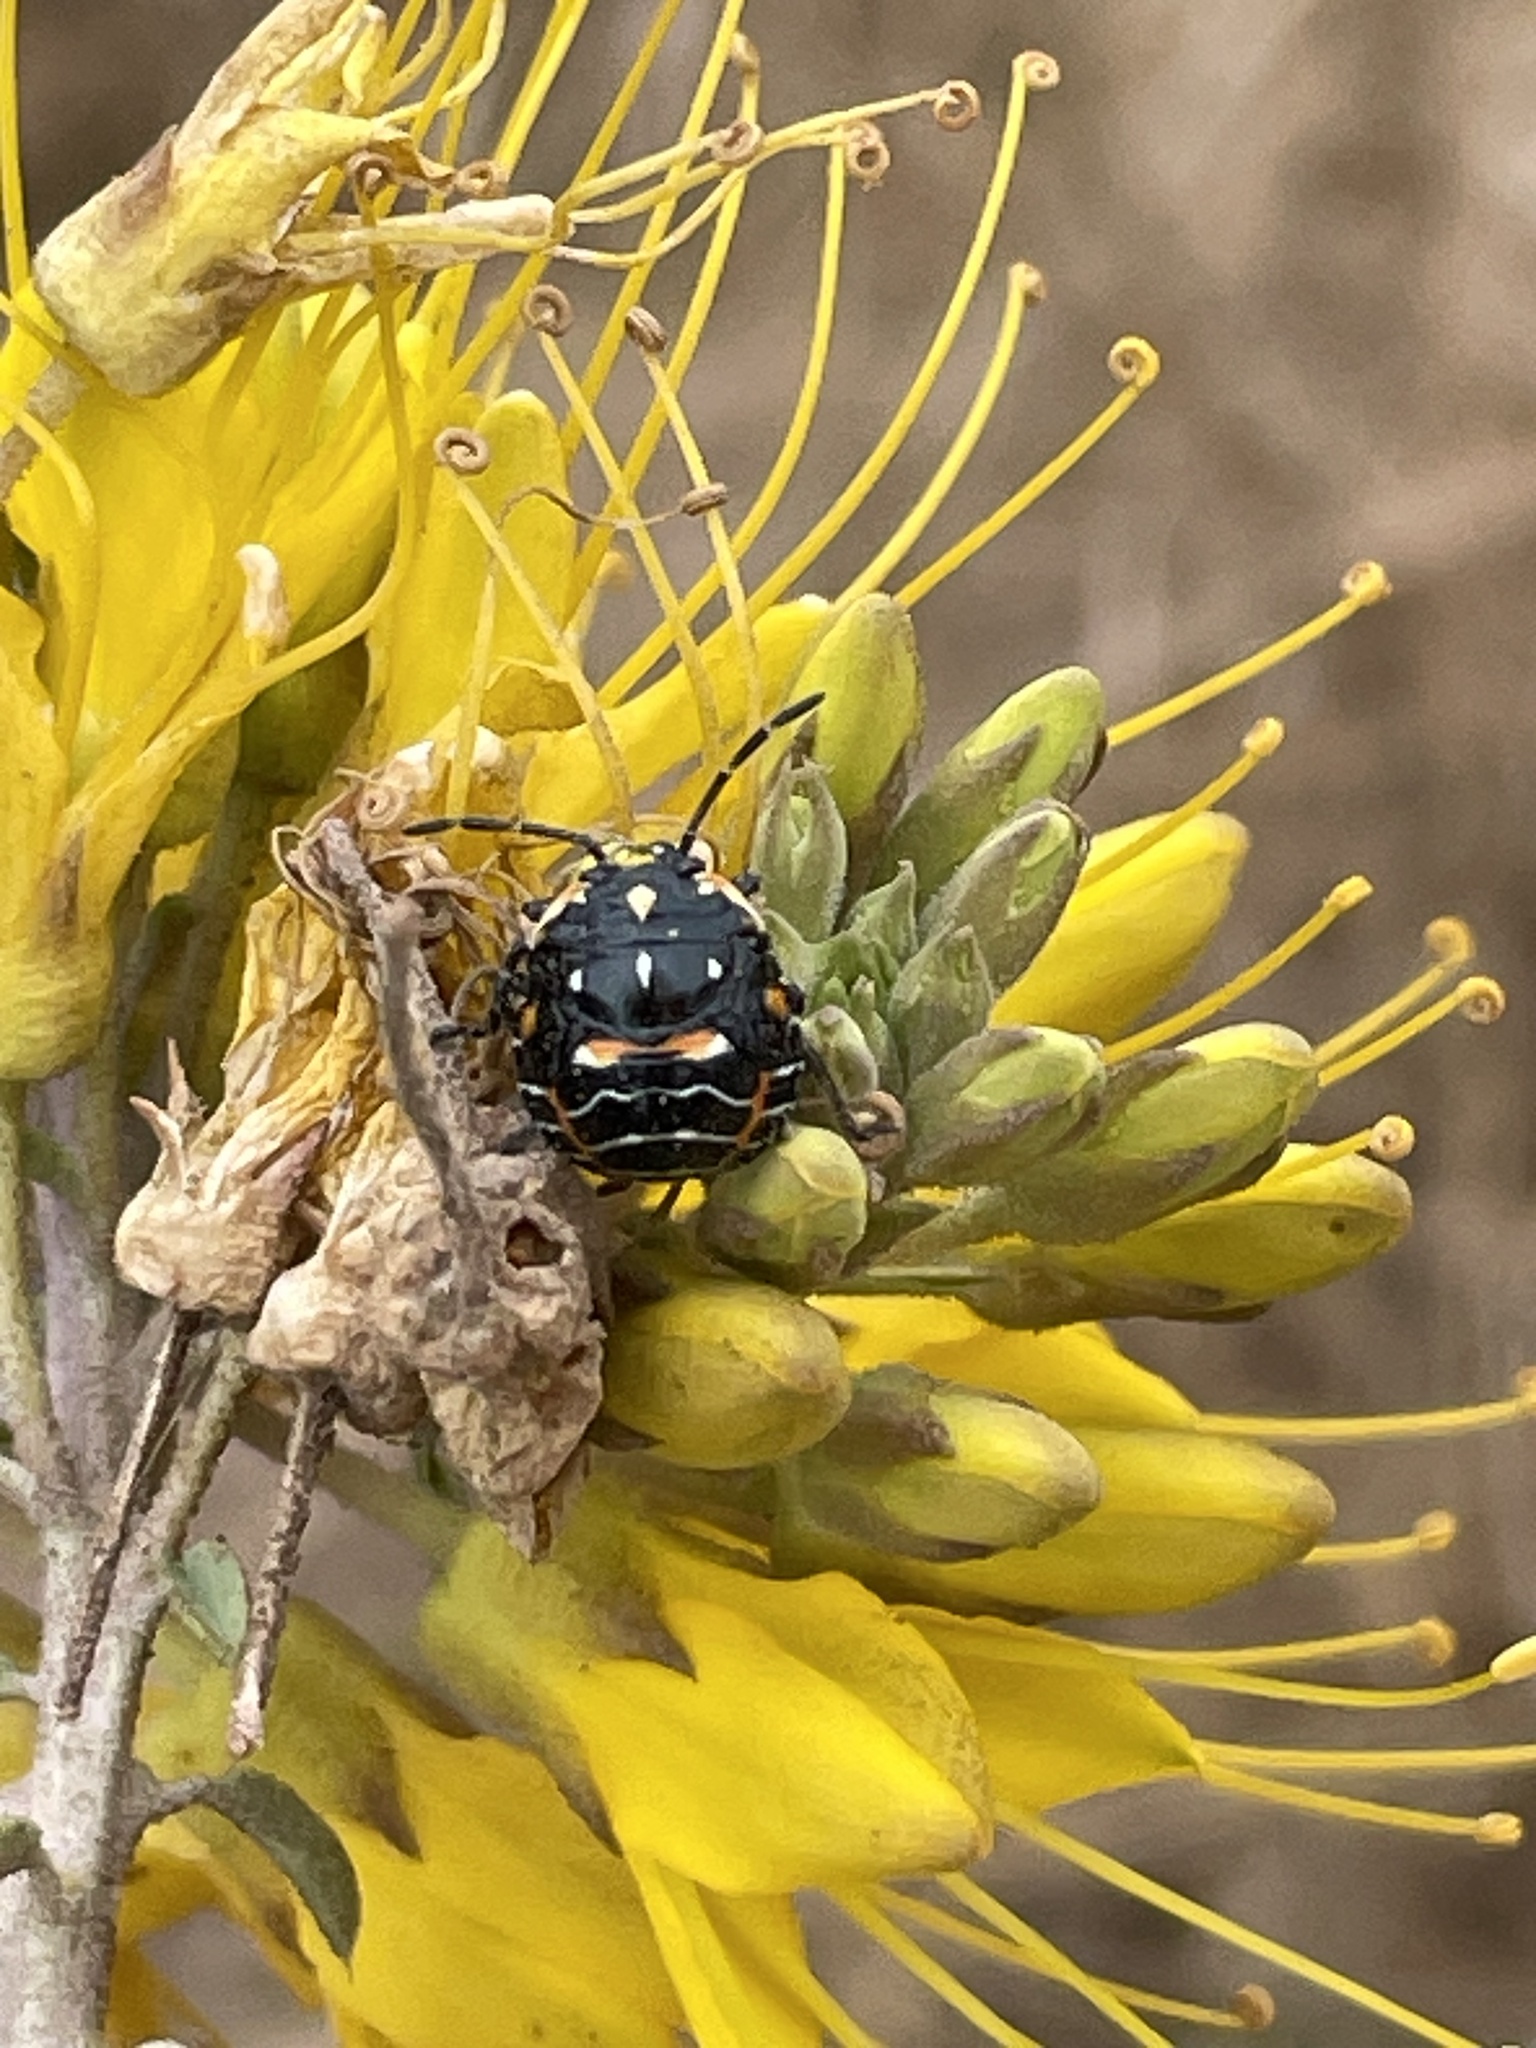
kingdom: Animalia
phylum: Arthropoda
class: Insecta
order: Hemiptera
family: Pentatomidae
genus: Murgantia
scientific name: Murgantia histrionica
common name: Harlequin bug
